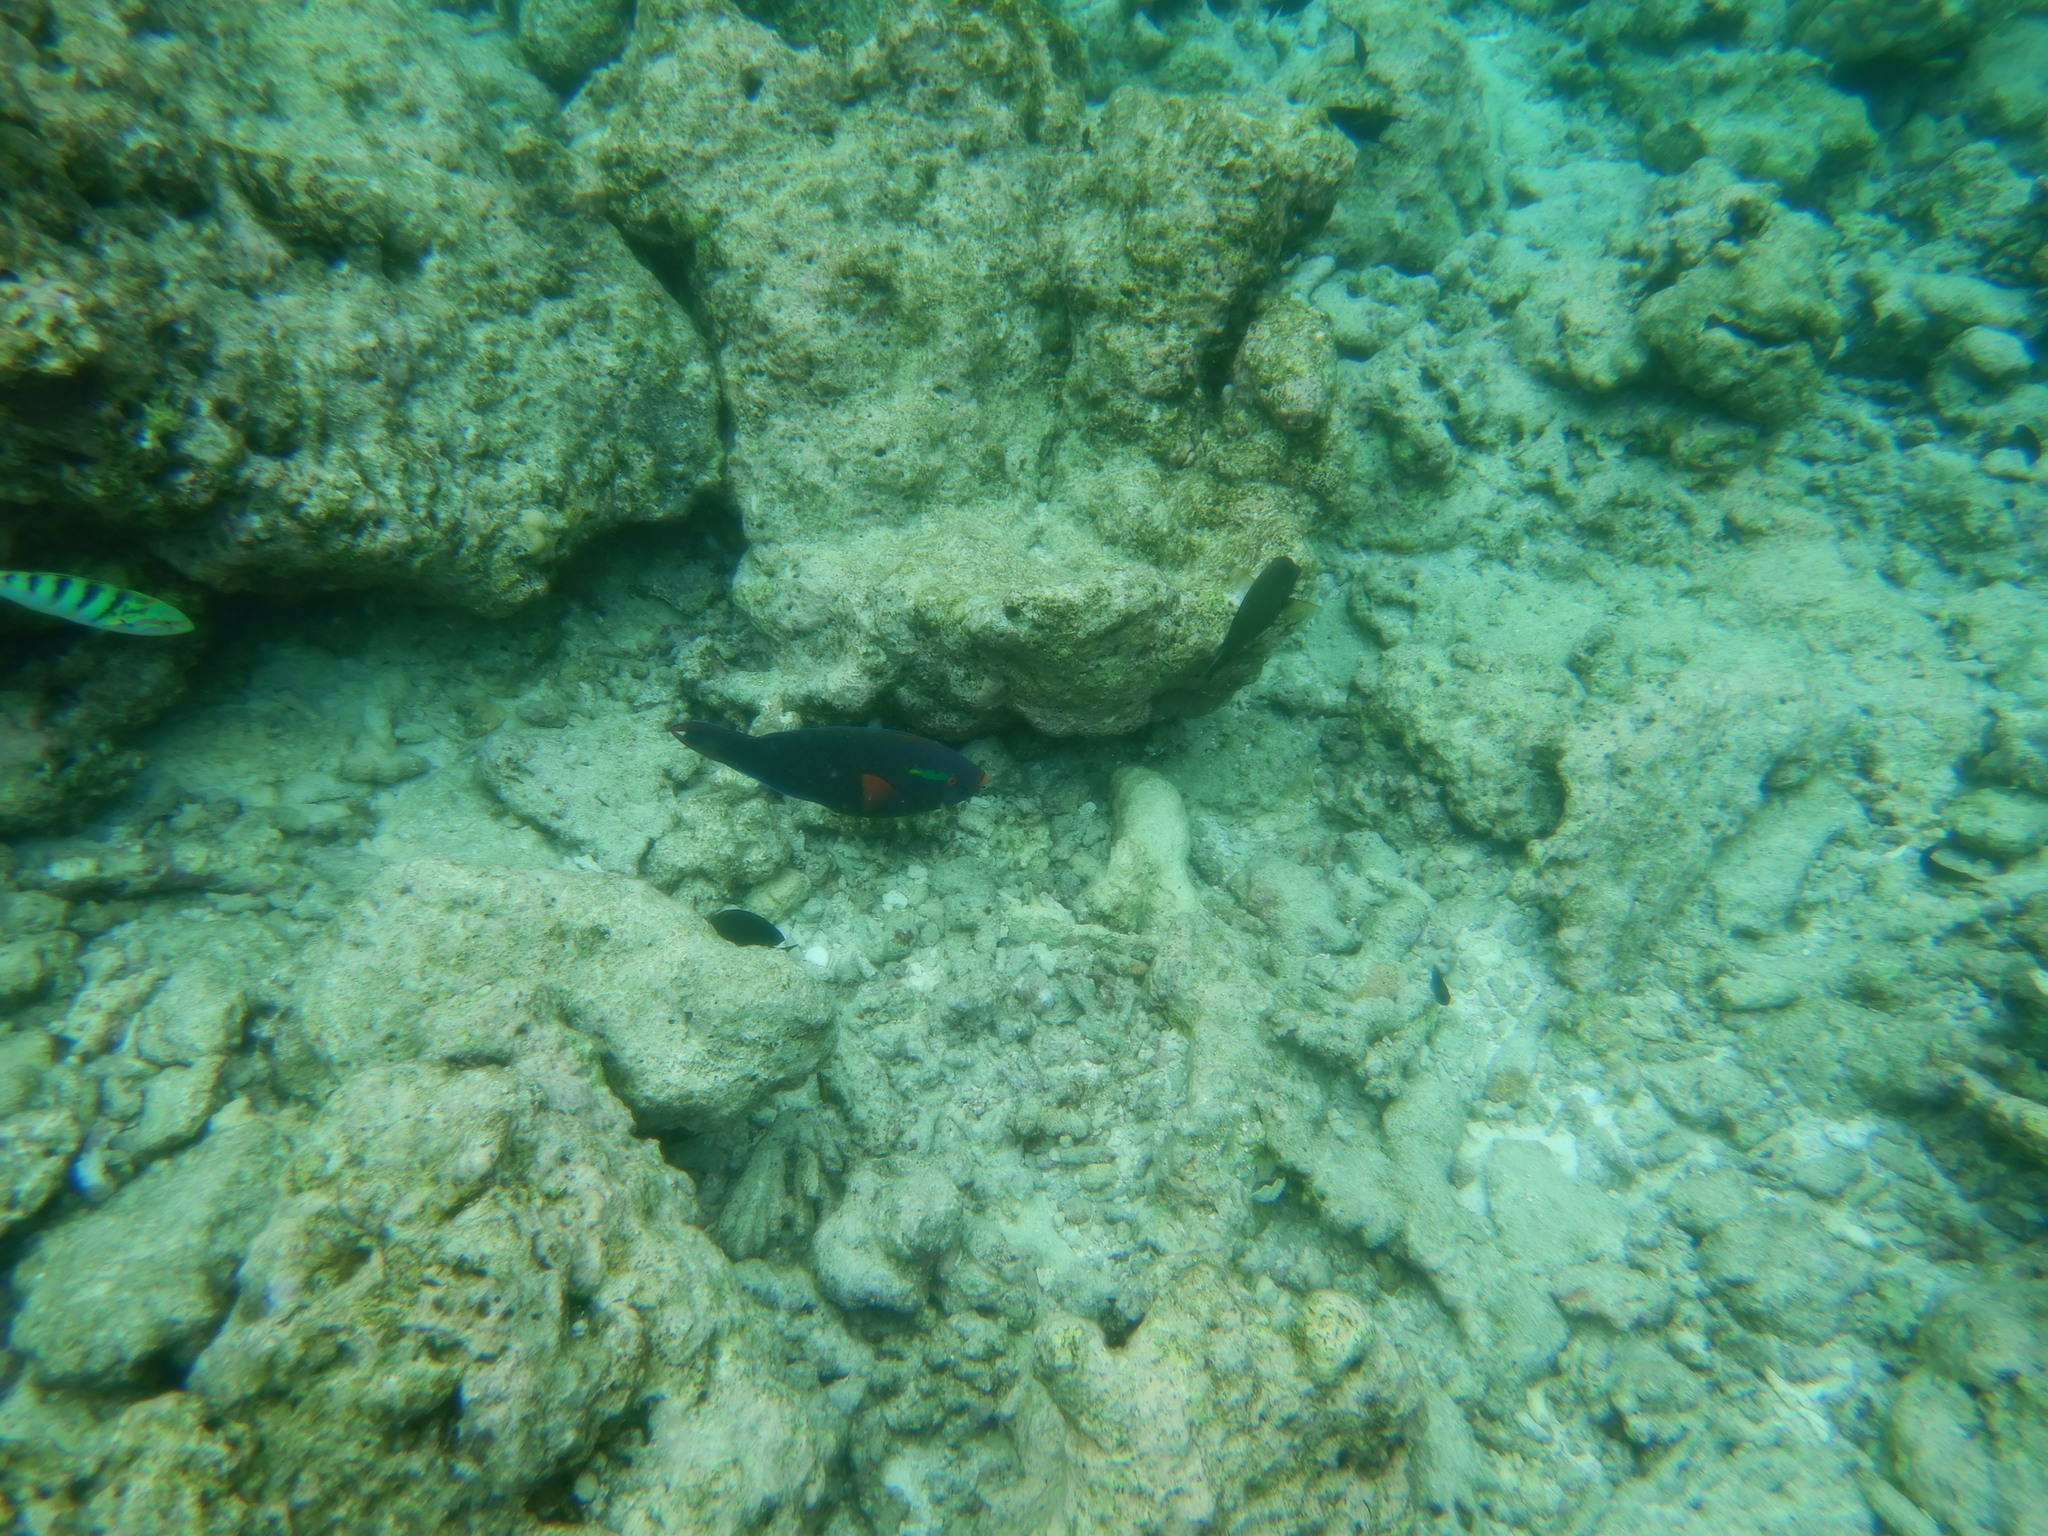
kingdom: Animalia
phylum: Chordata
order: Perciformes
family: Scaridae
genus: Scarus
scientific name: Scarus niger
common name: Dusky parrotfish
